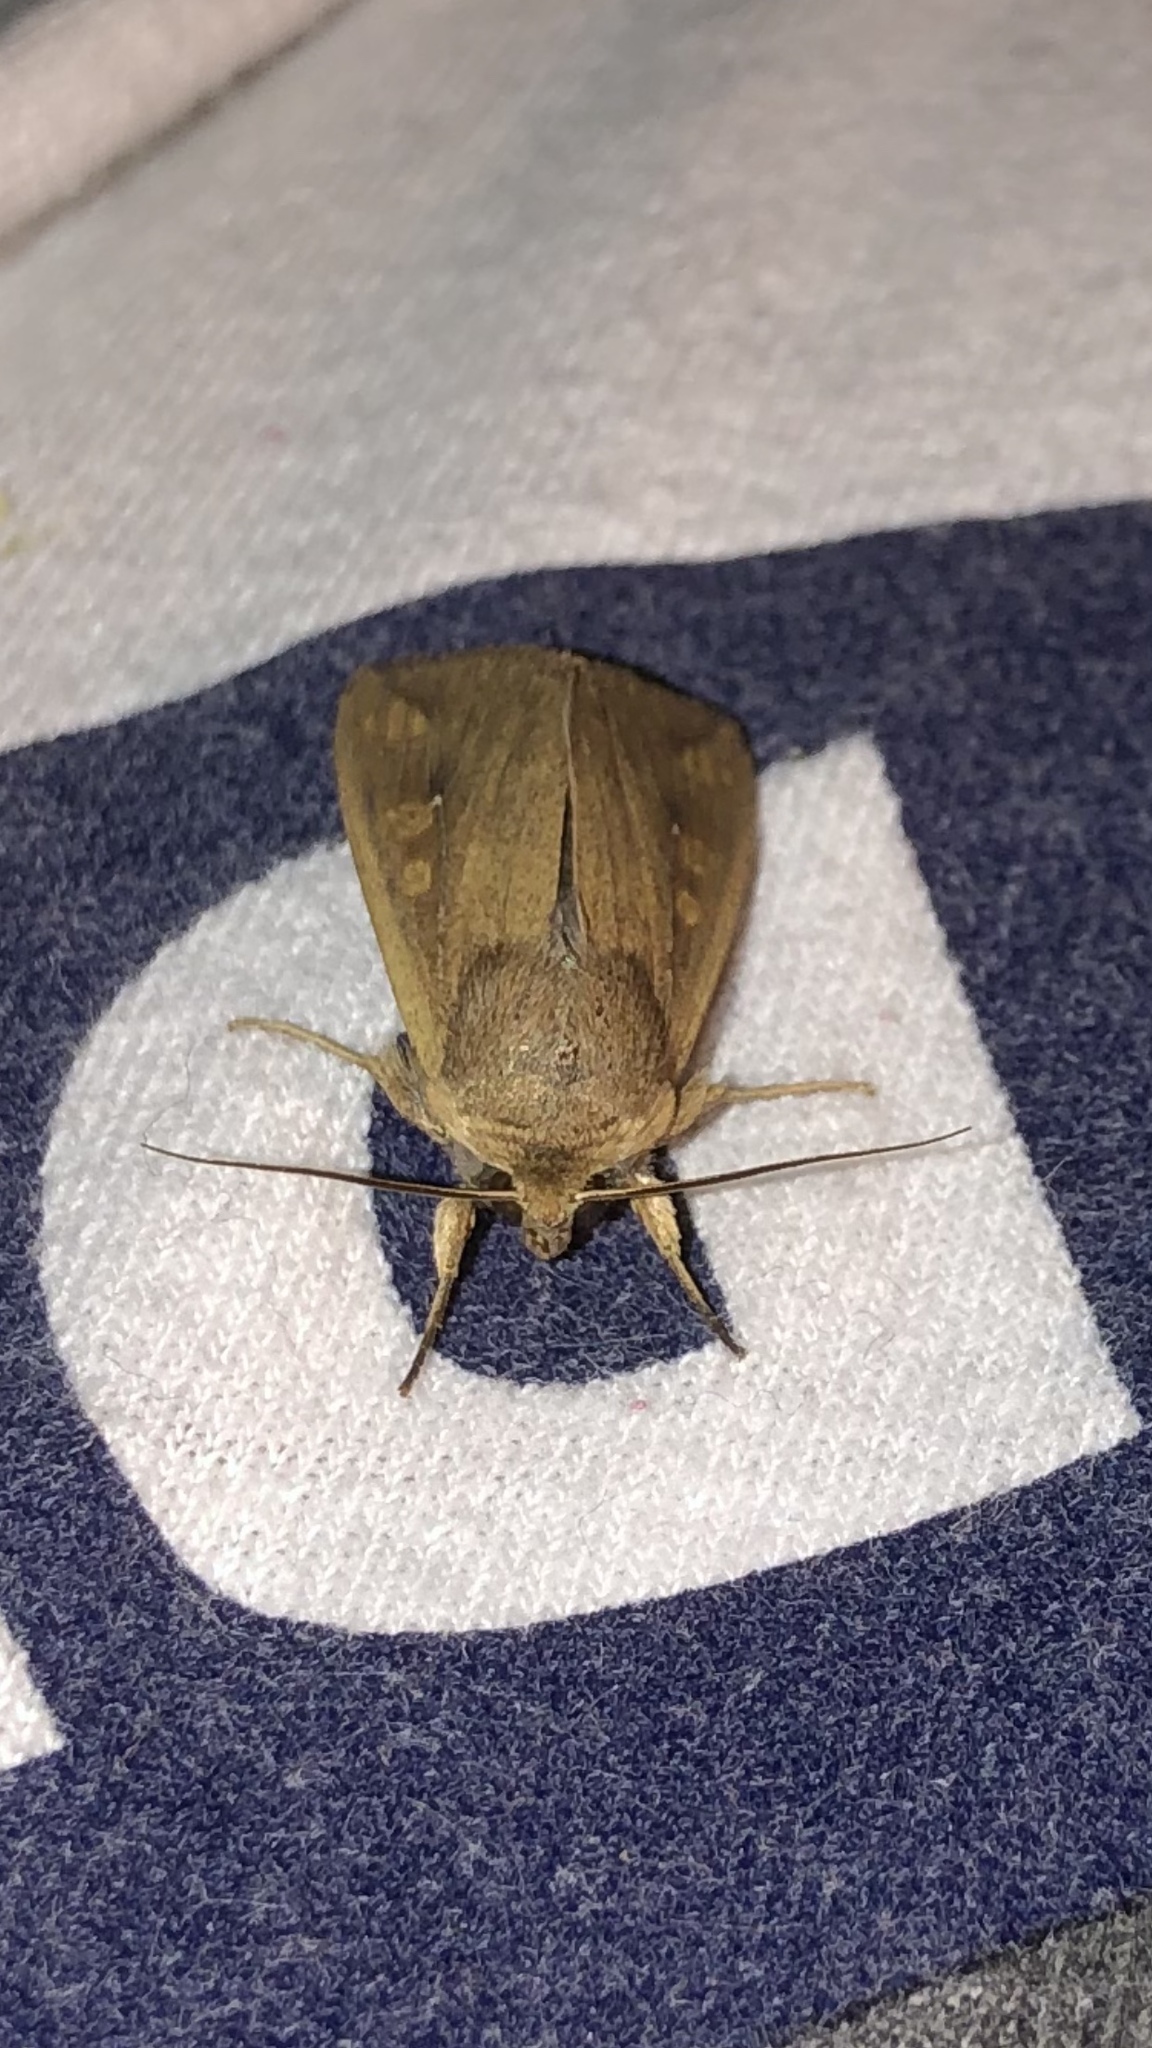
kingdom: Animalia
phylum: Arthropoda
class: Insecta
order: Lepidoptera
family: Noctuidae
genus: Mythimna
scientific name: Mythimna unipuncta
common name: White-speck
